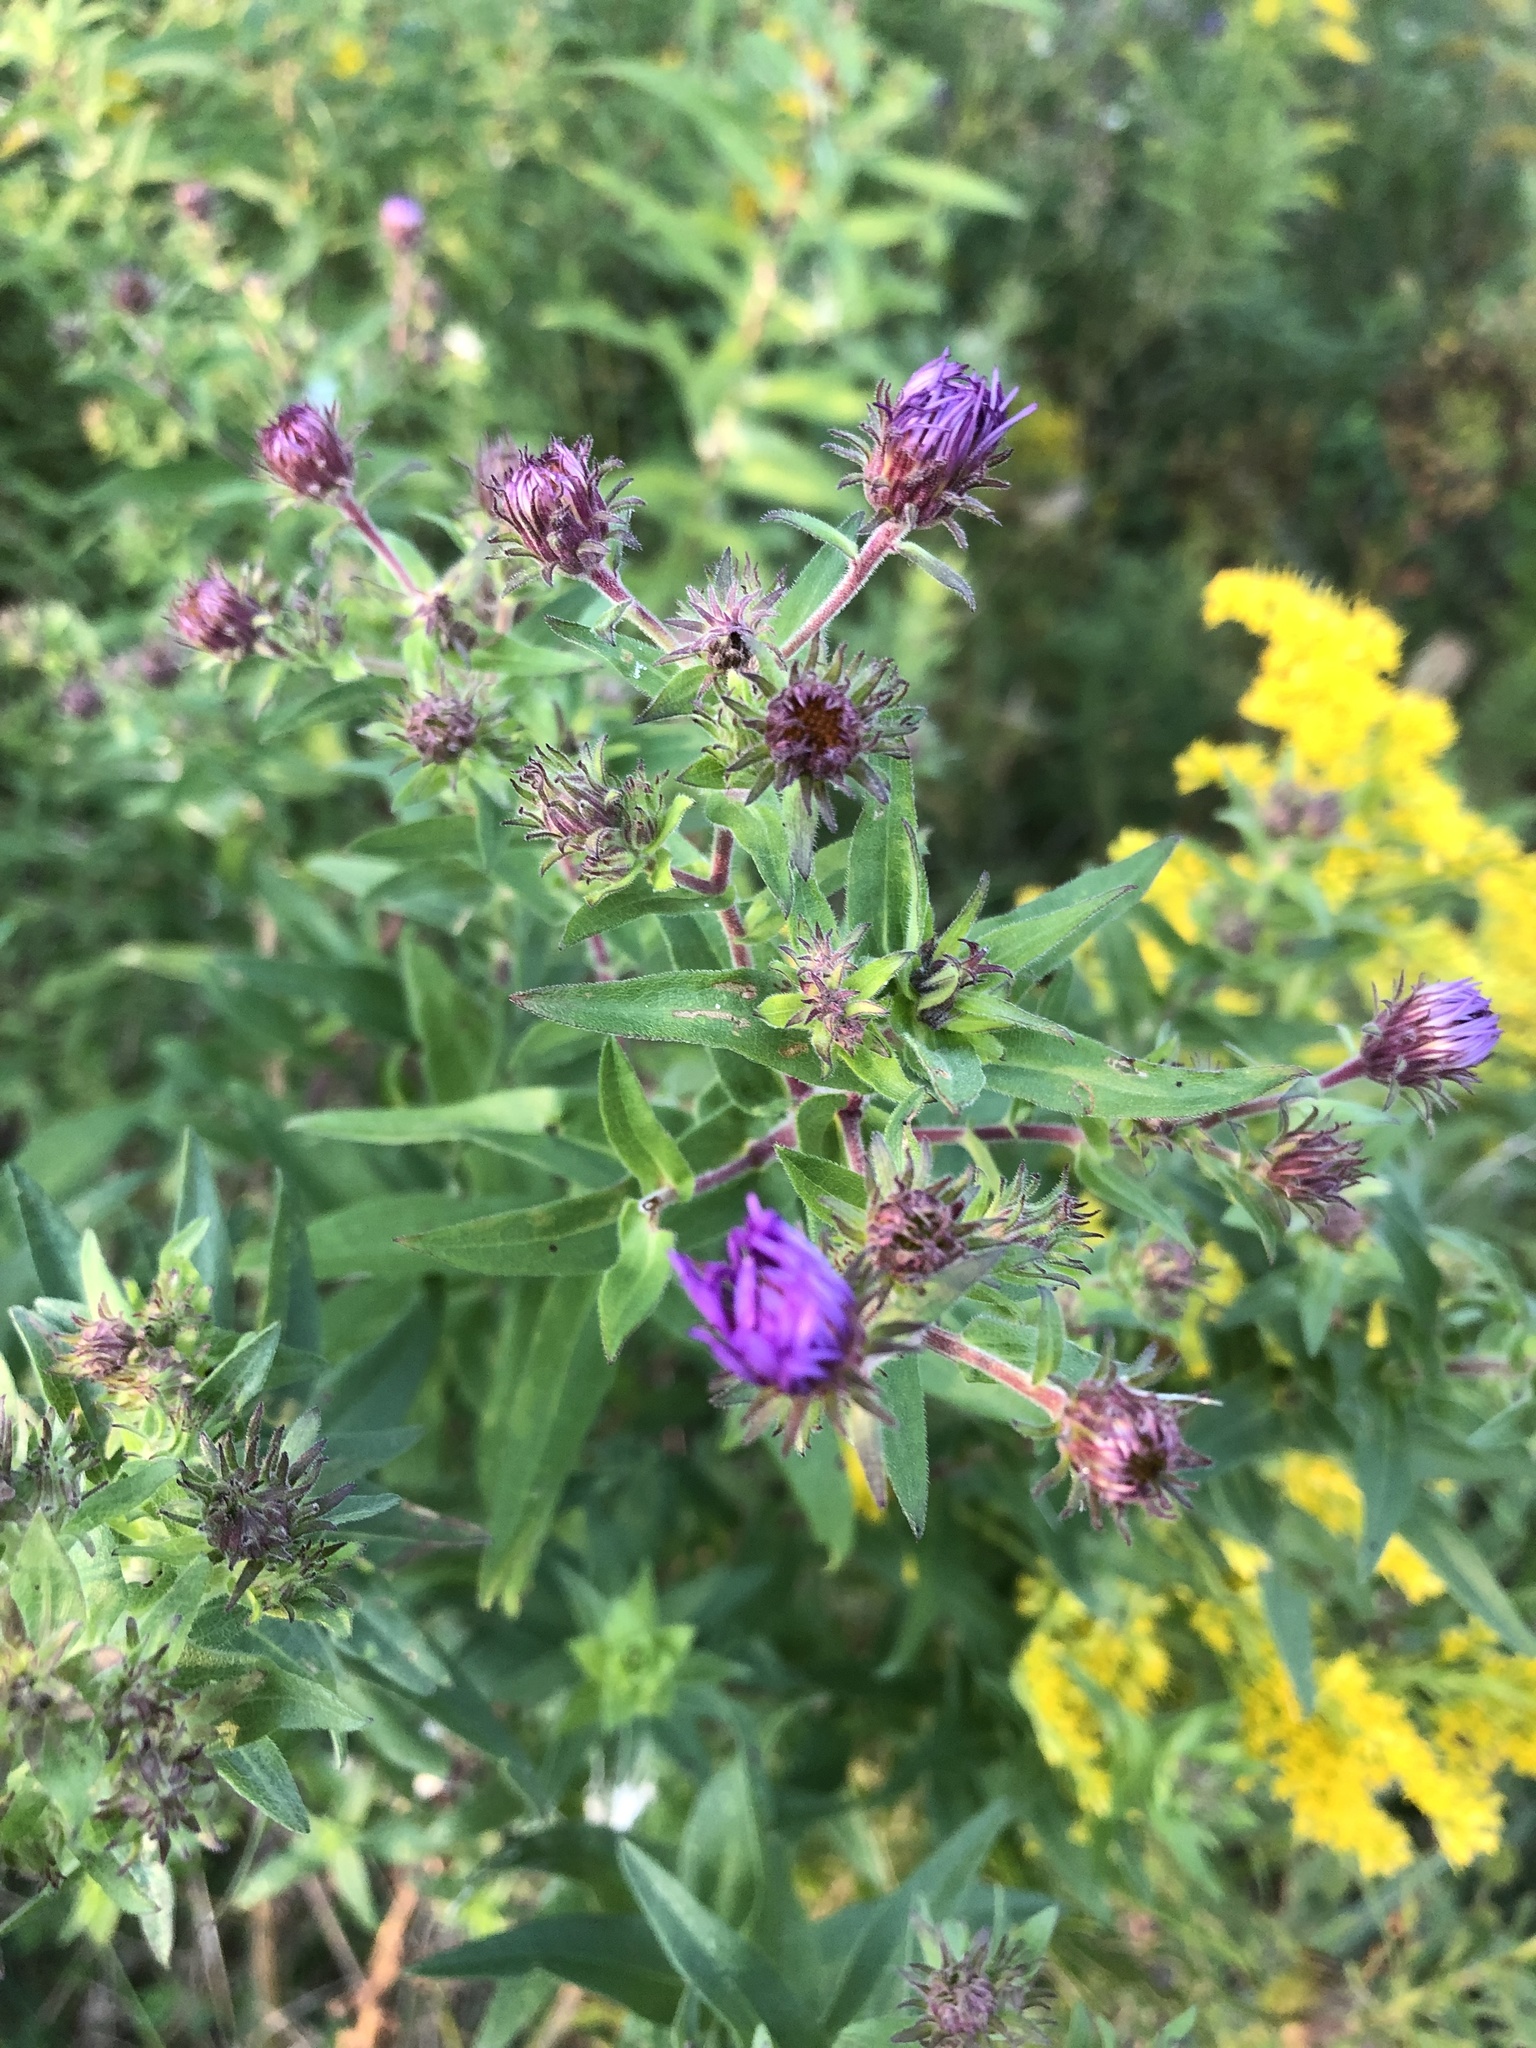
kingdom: Plantae
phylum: Tracheophyta
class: Magnoliopsida
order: Asterales
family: Asteraceae
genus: Symphyotrichum
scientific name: Symphyotrichum novae-angliae
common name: Michaelmas daisy
